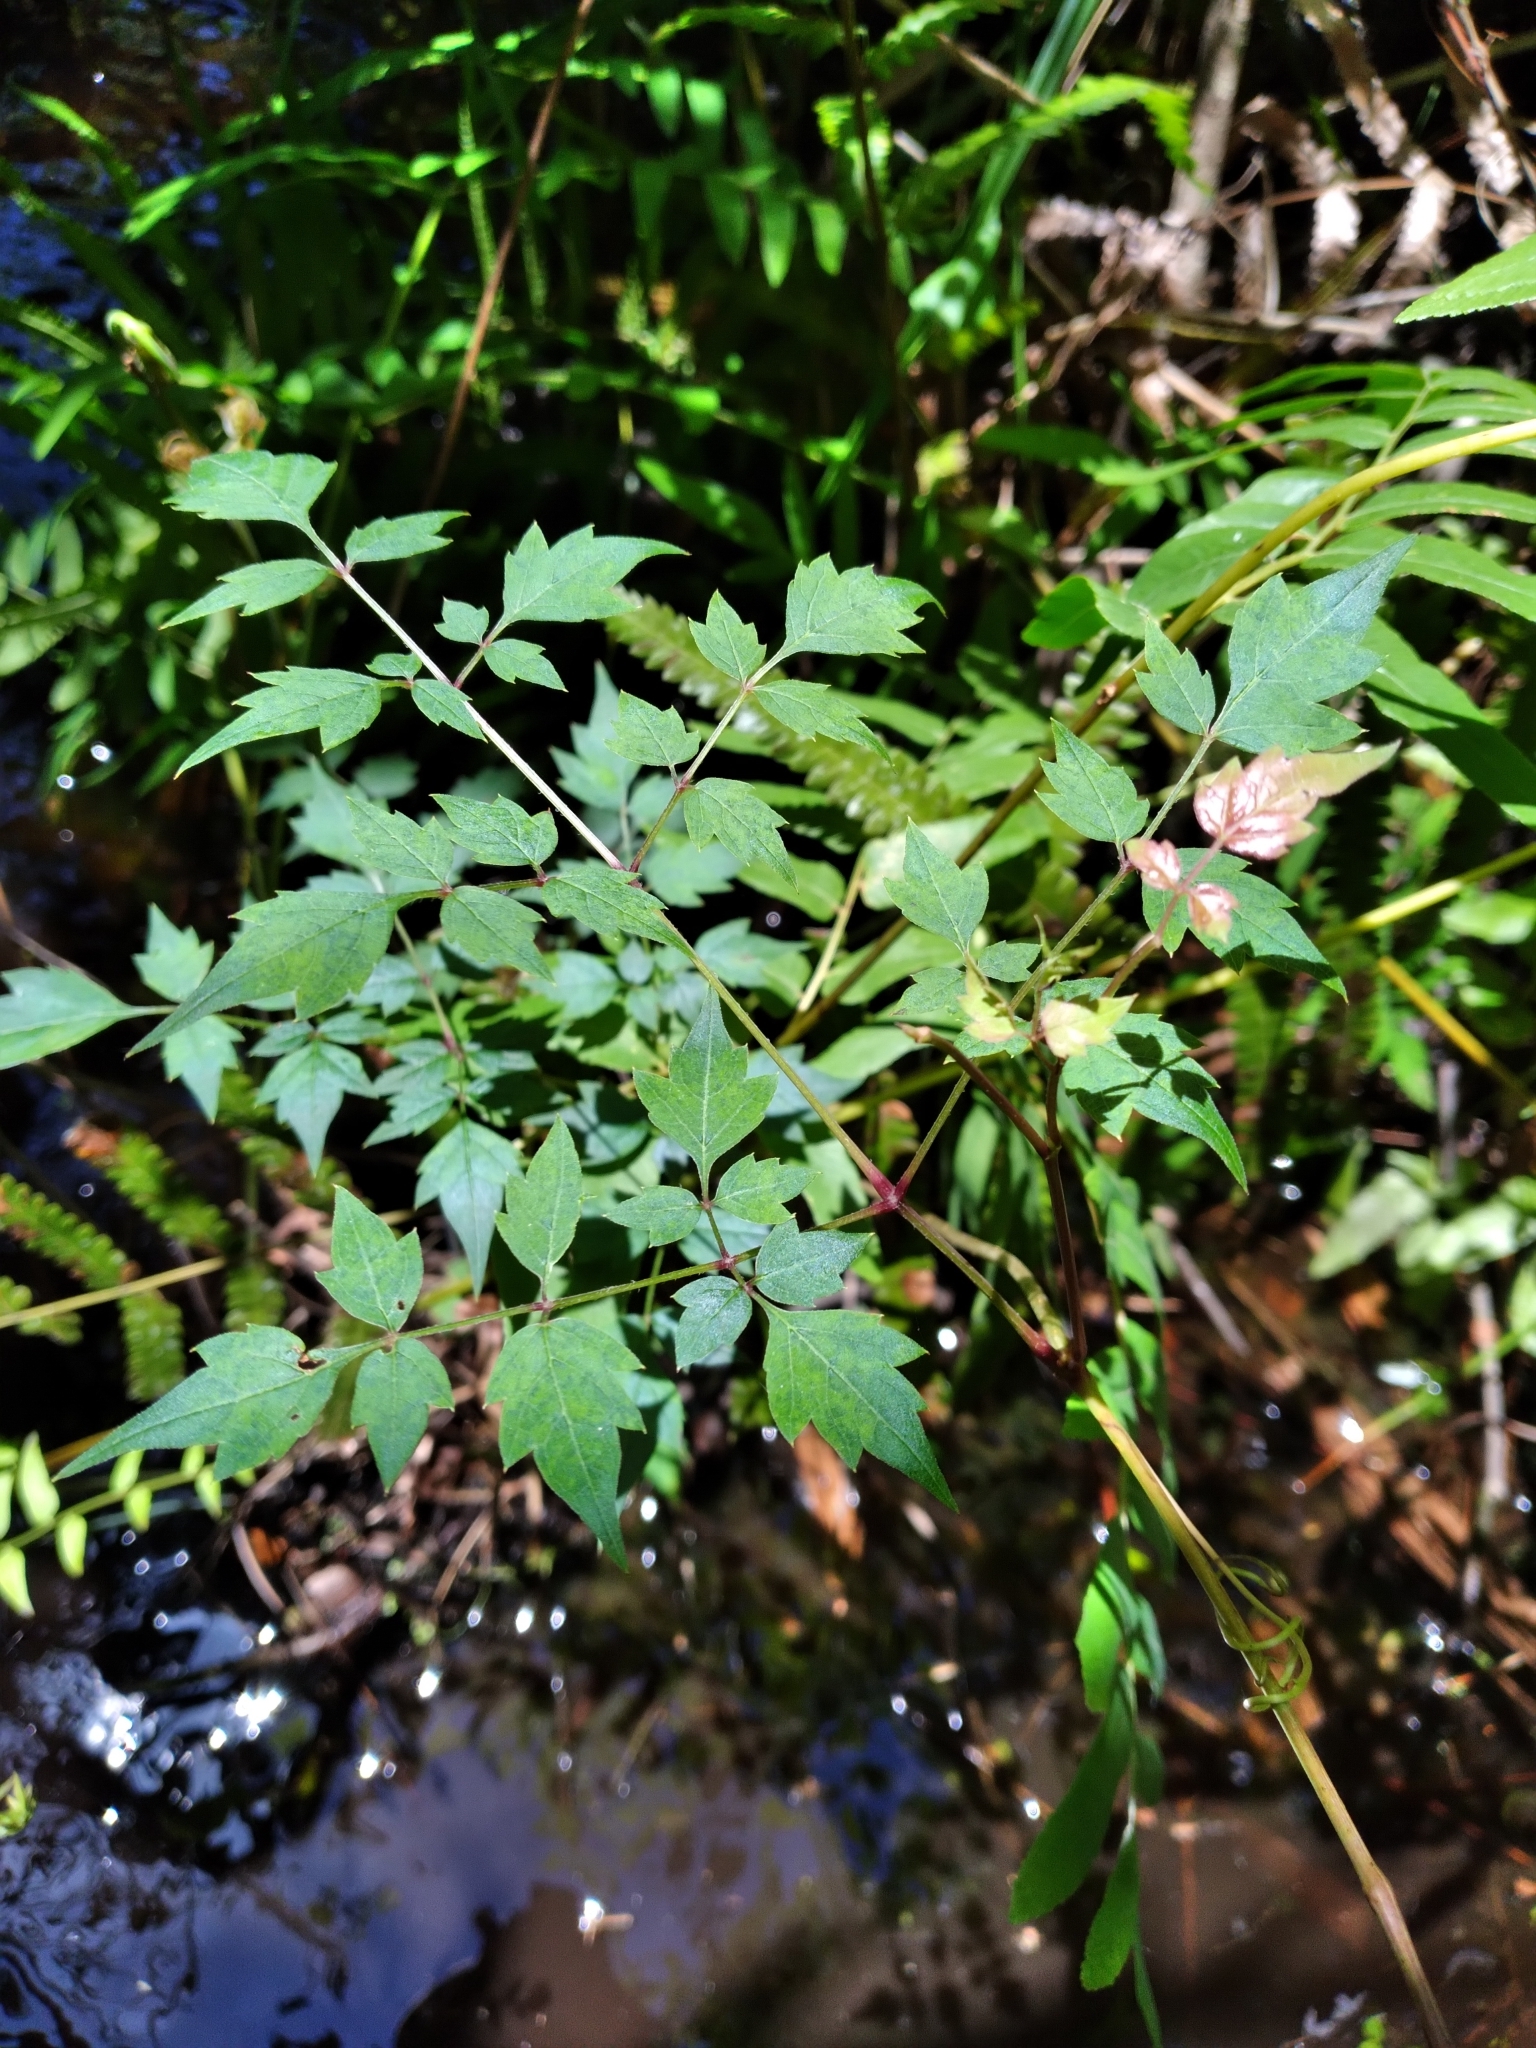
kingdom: Plantae
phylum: Tracheophyta
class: Magnoliopsida
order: Vitales
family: Vitaceae
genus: Nekemias
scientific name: Nekemias arborea
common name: Peppervine
